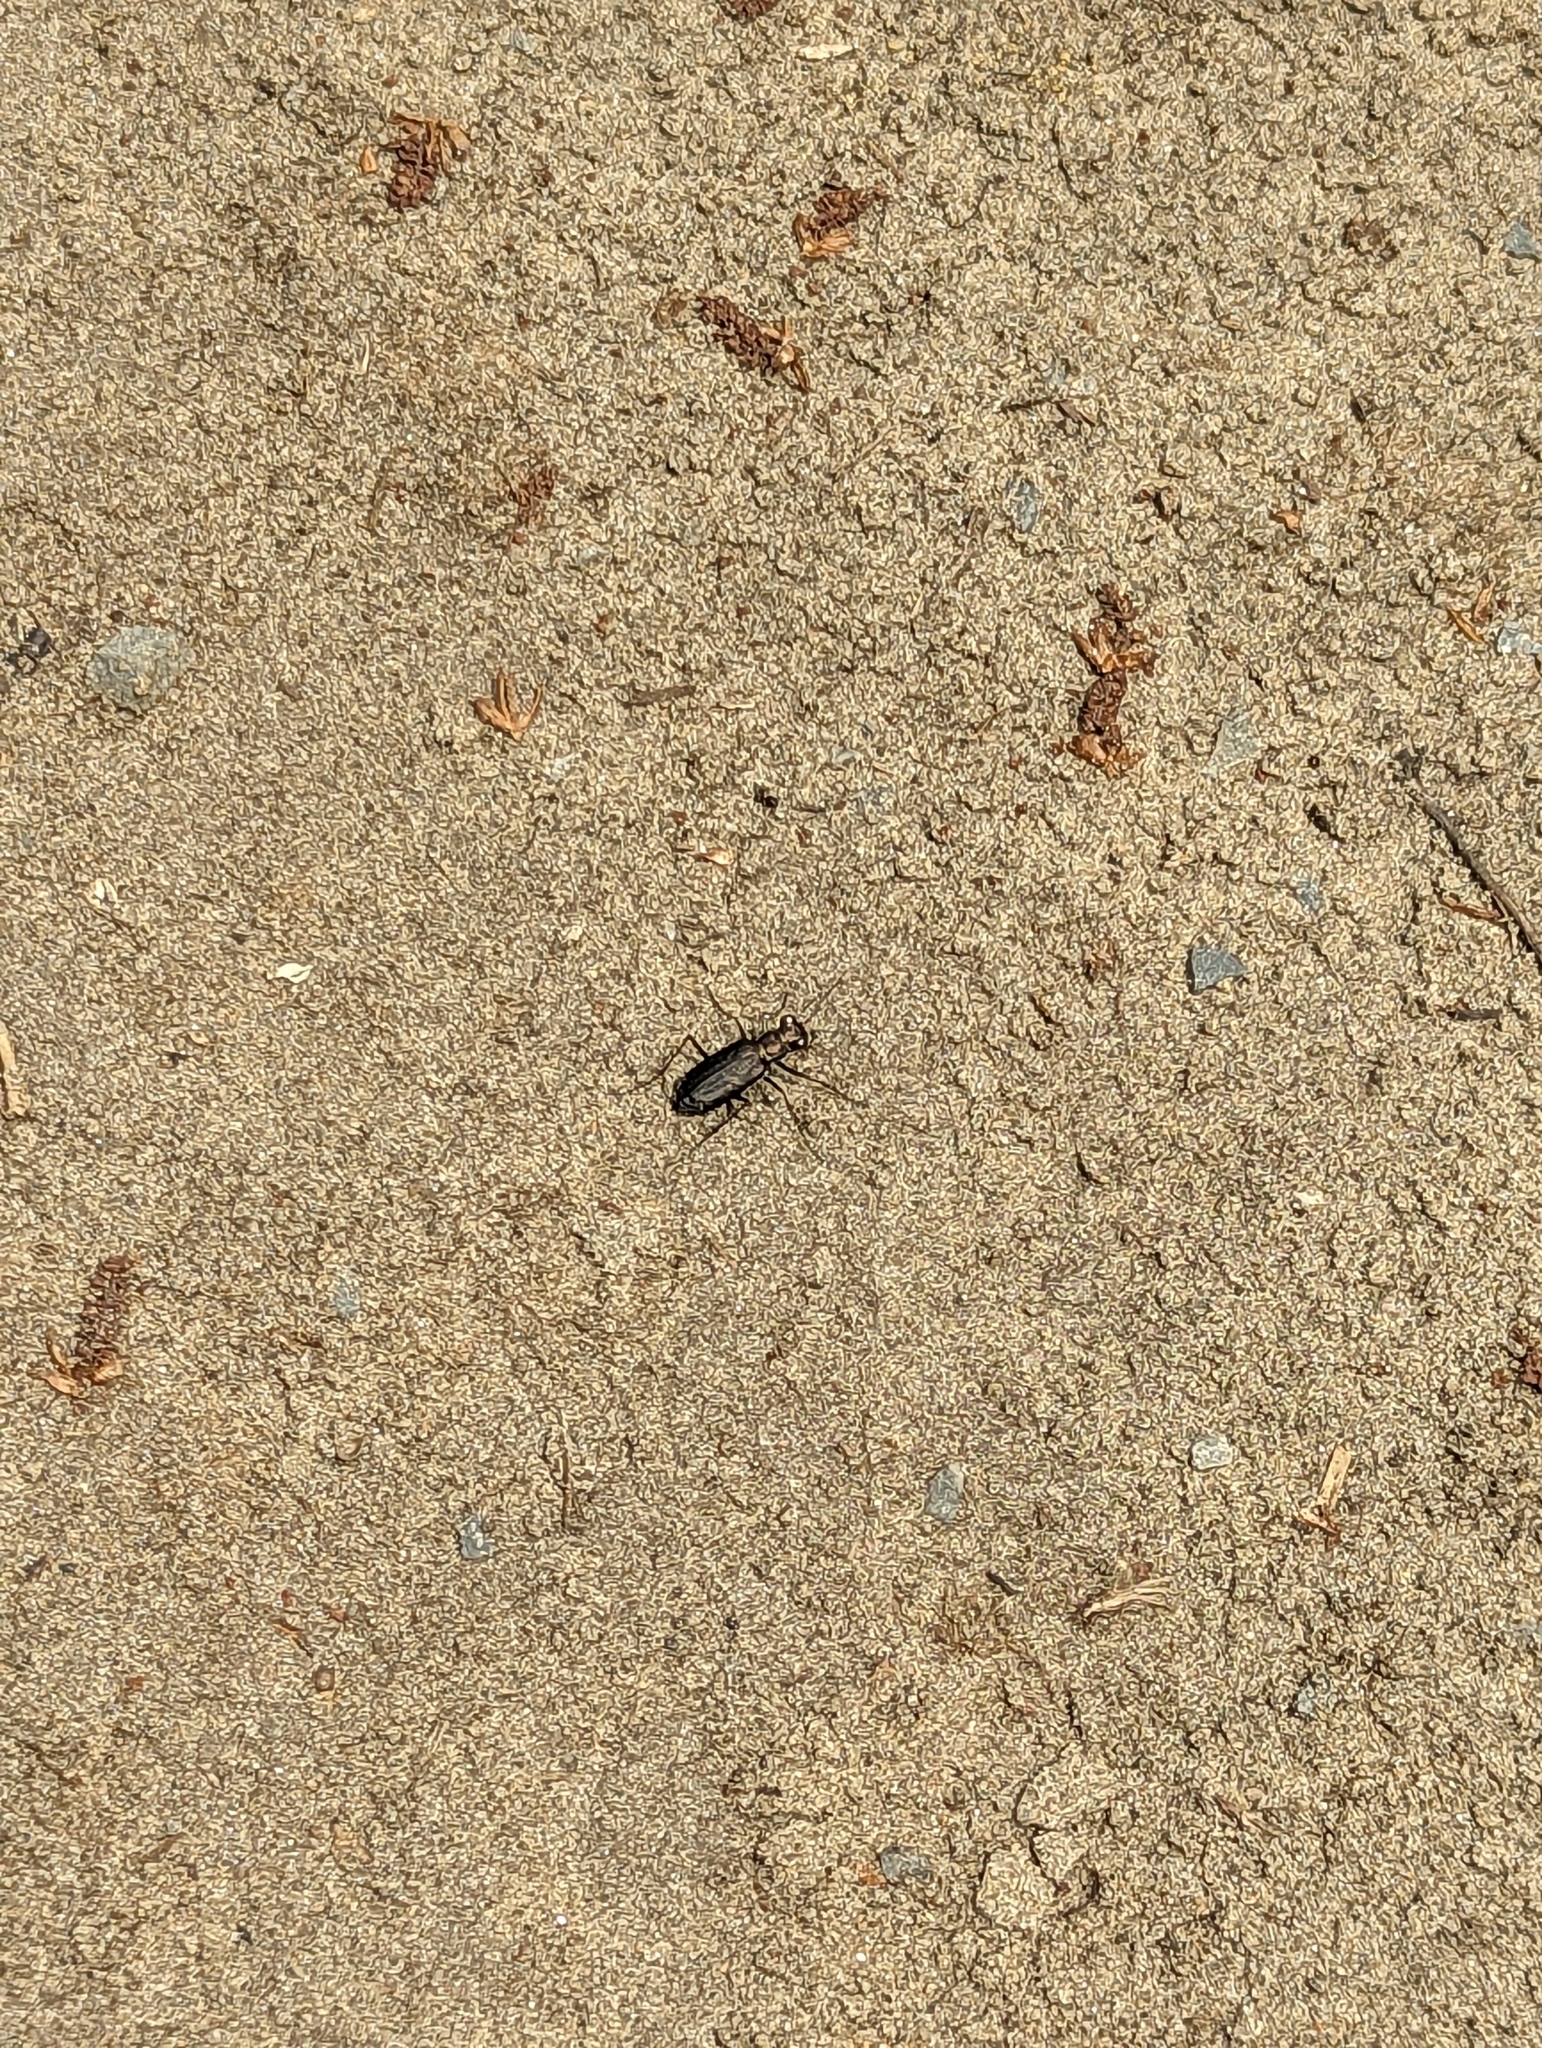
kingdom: Animalia
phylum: Arthropoda
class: Insecta
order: Coleoptera
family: Carabidae
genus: Cicindela
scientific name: Cicindela punctulata
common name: Punctured tiger beetle
